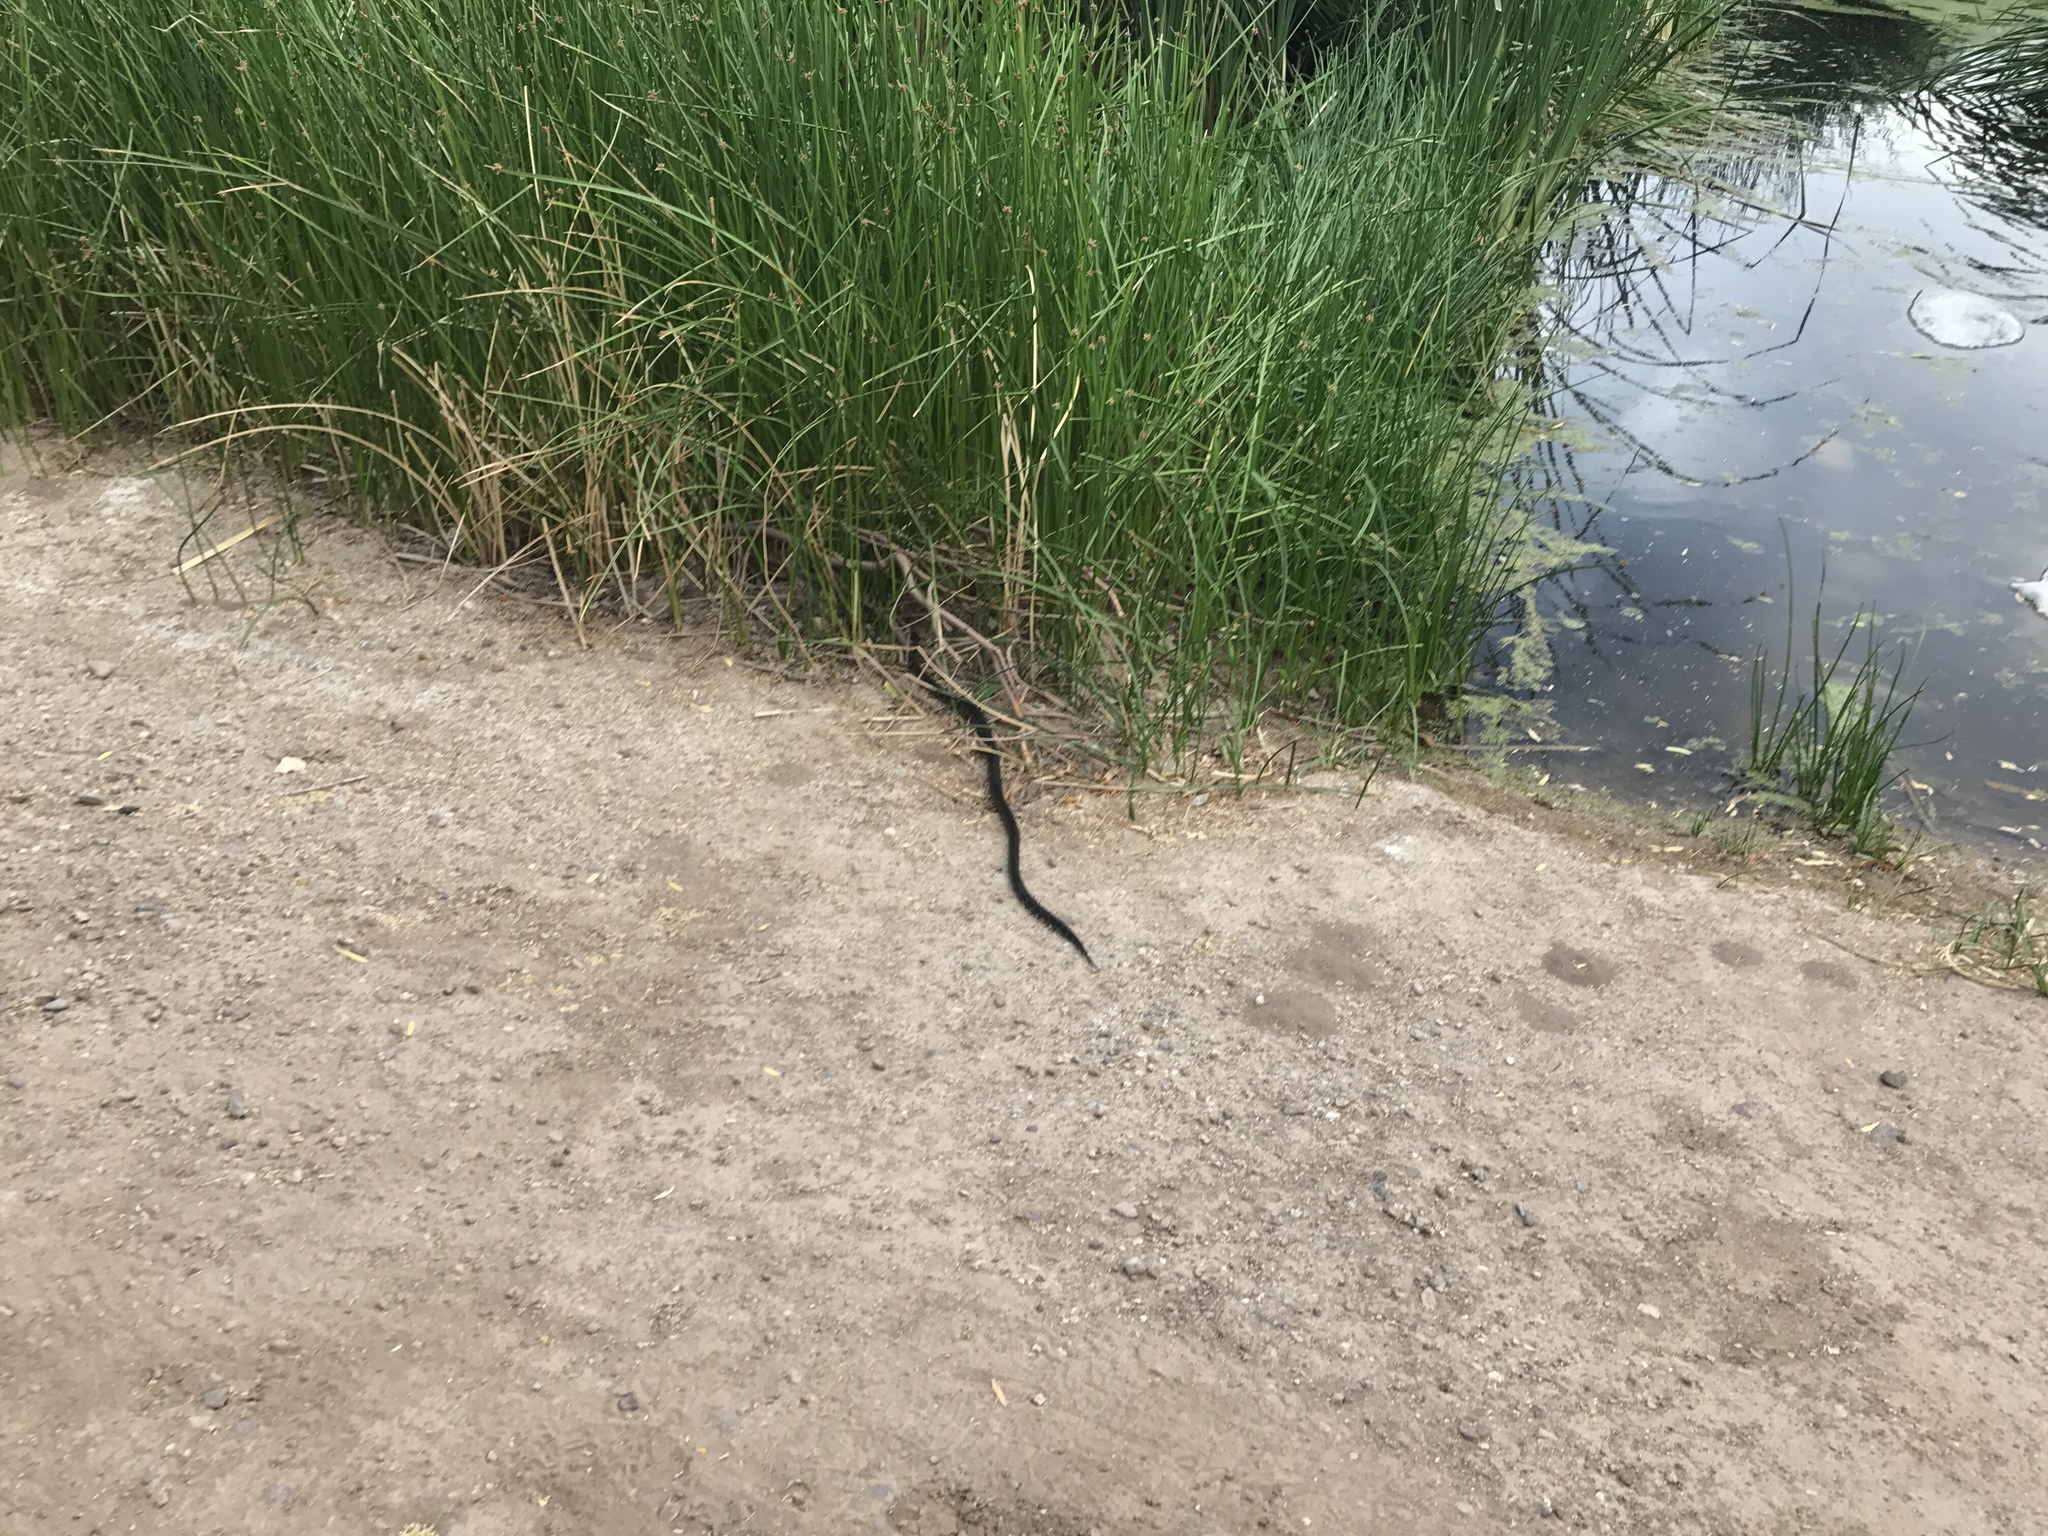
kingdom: Animalia
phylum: Chordata
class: Squamata
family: Colubridae
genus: Lampropeltis
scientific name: Lampropeltis
